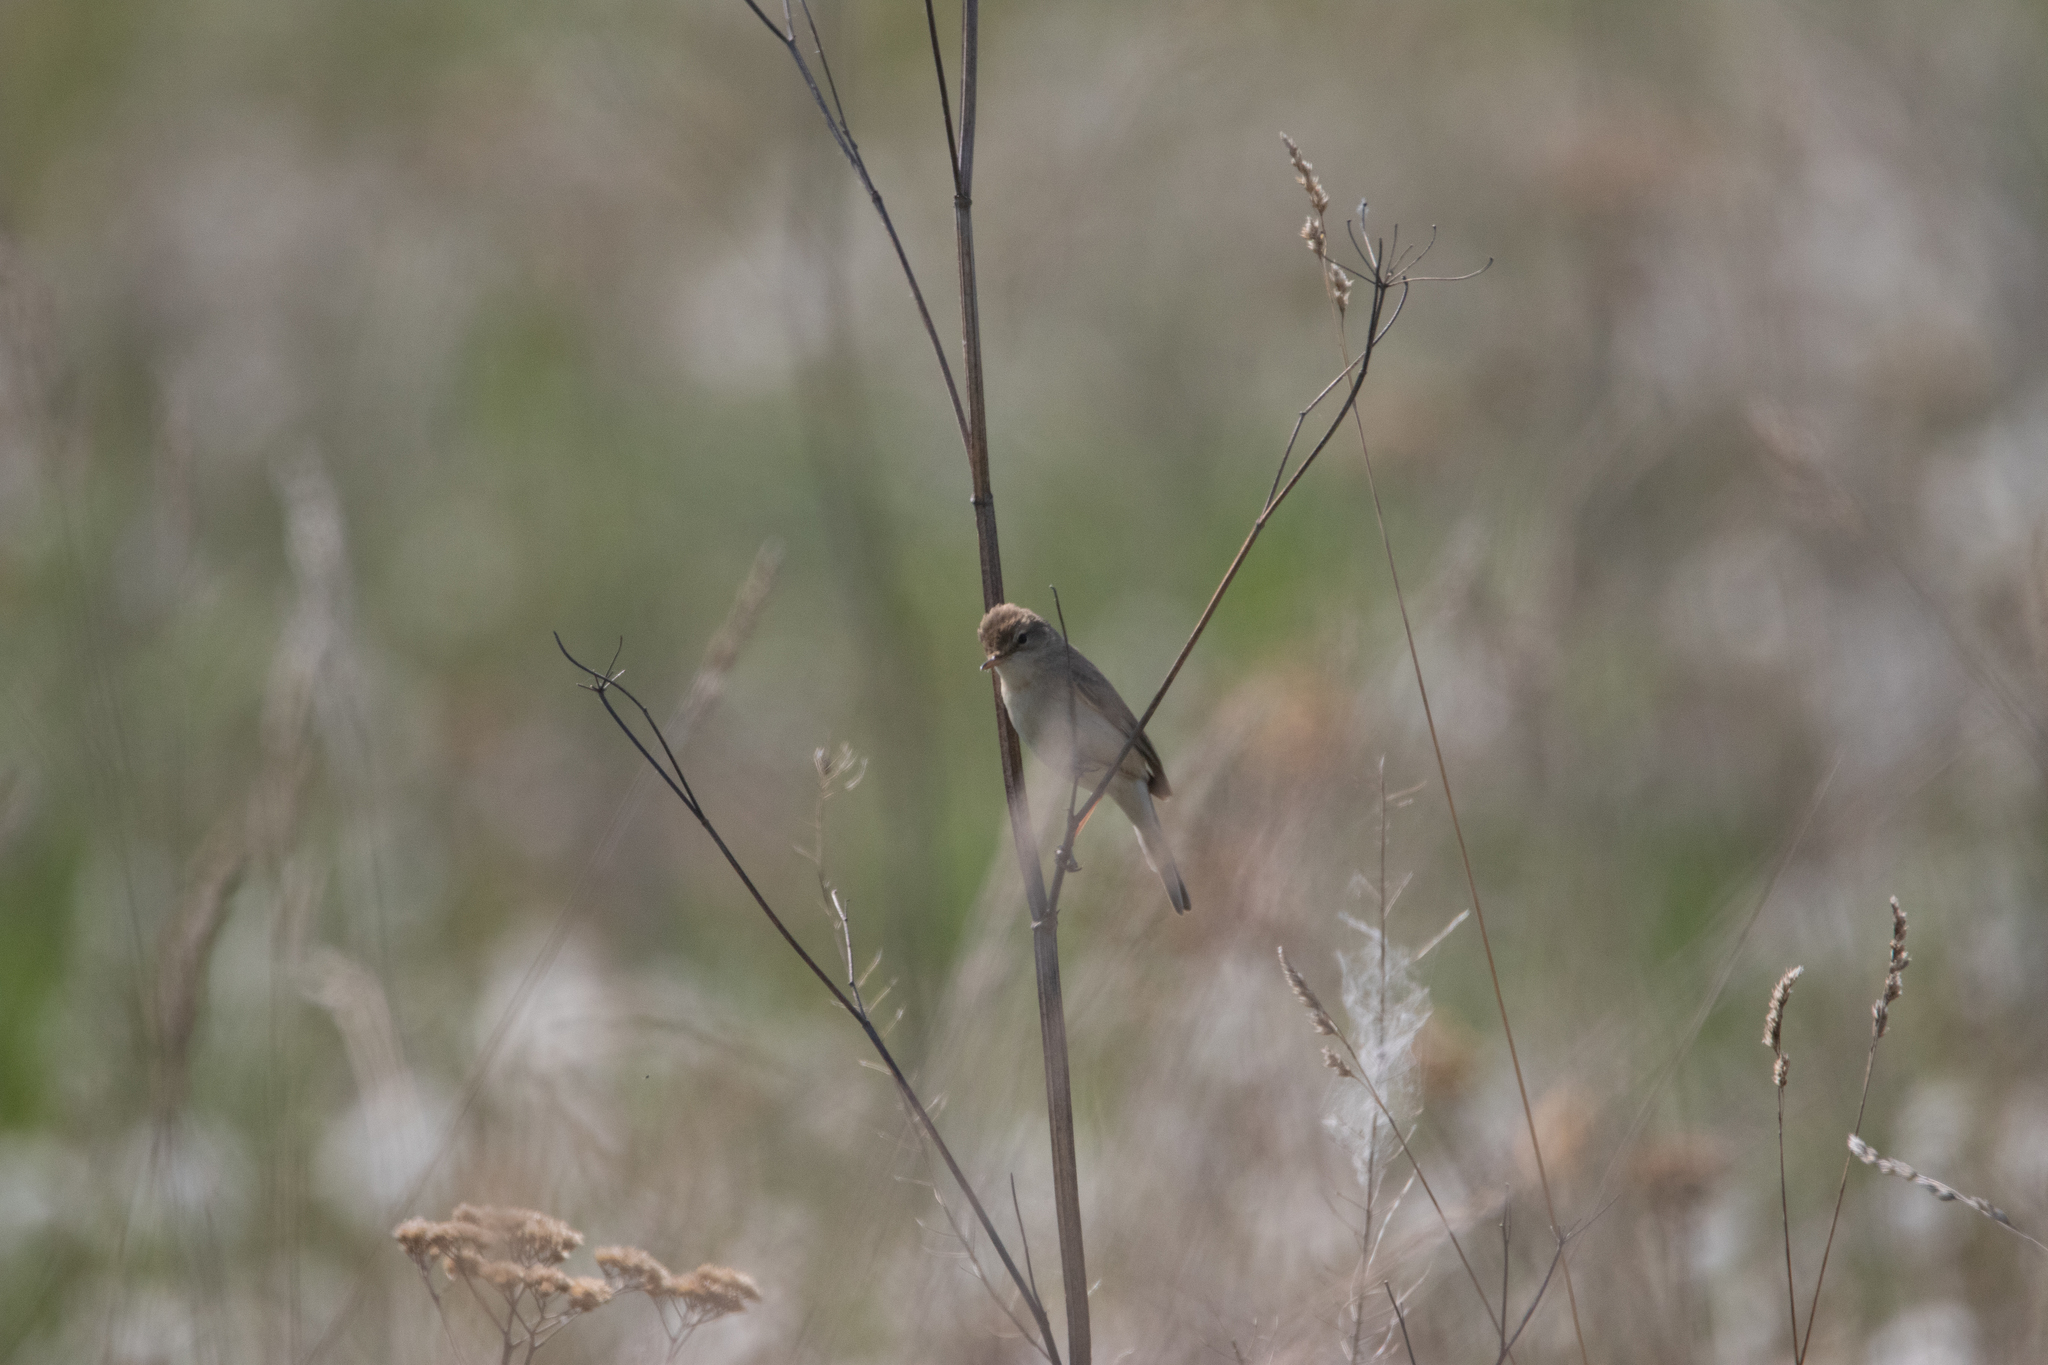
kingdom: Animalia
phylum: Chordata
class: Aves
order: Passeriformes
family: Acrocephalidae
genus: Iduna
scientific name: Iduna caligata
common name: Booted warbler
